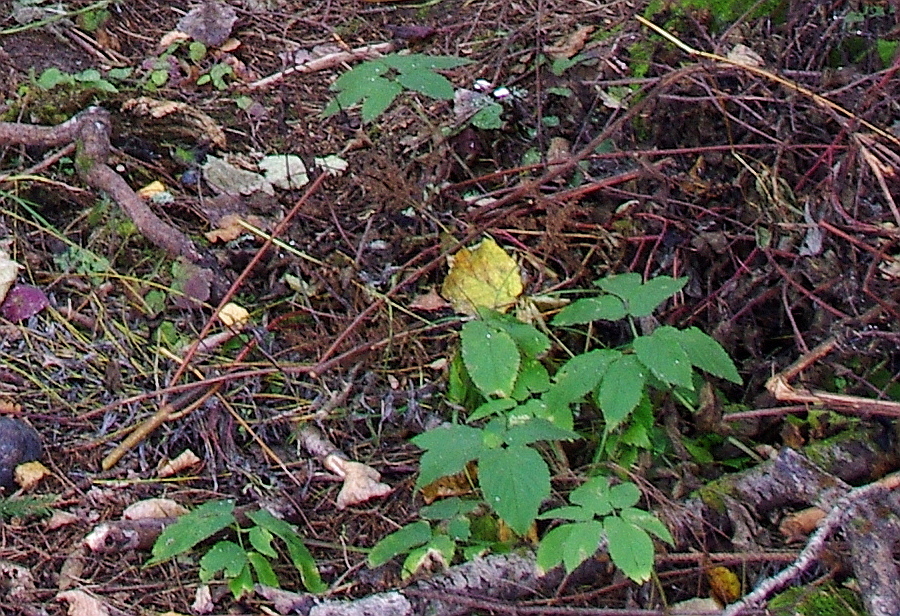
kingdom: Plantae
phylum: Tracheophyta
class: Magnoliopsida
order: Apiales
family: Apiaceae
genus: Aegopodium
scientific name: Aegopodium podagraria
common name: Ground-elder
